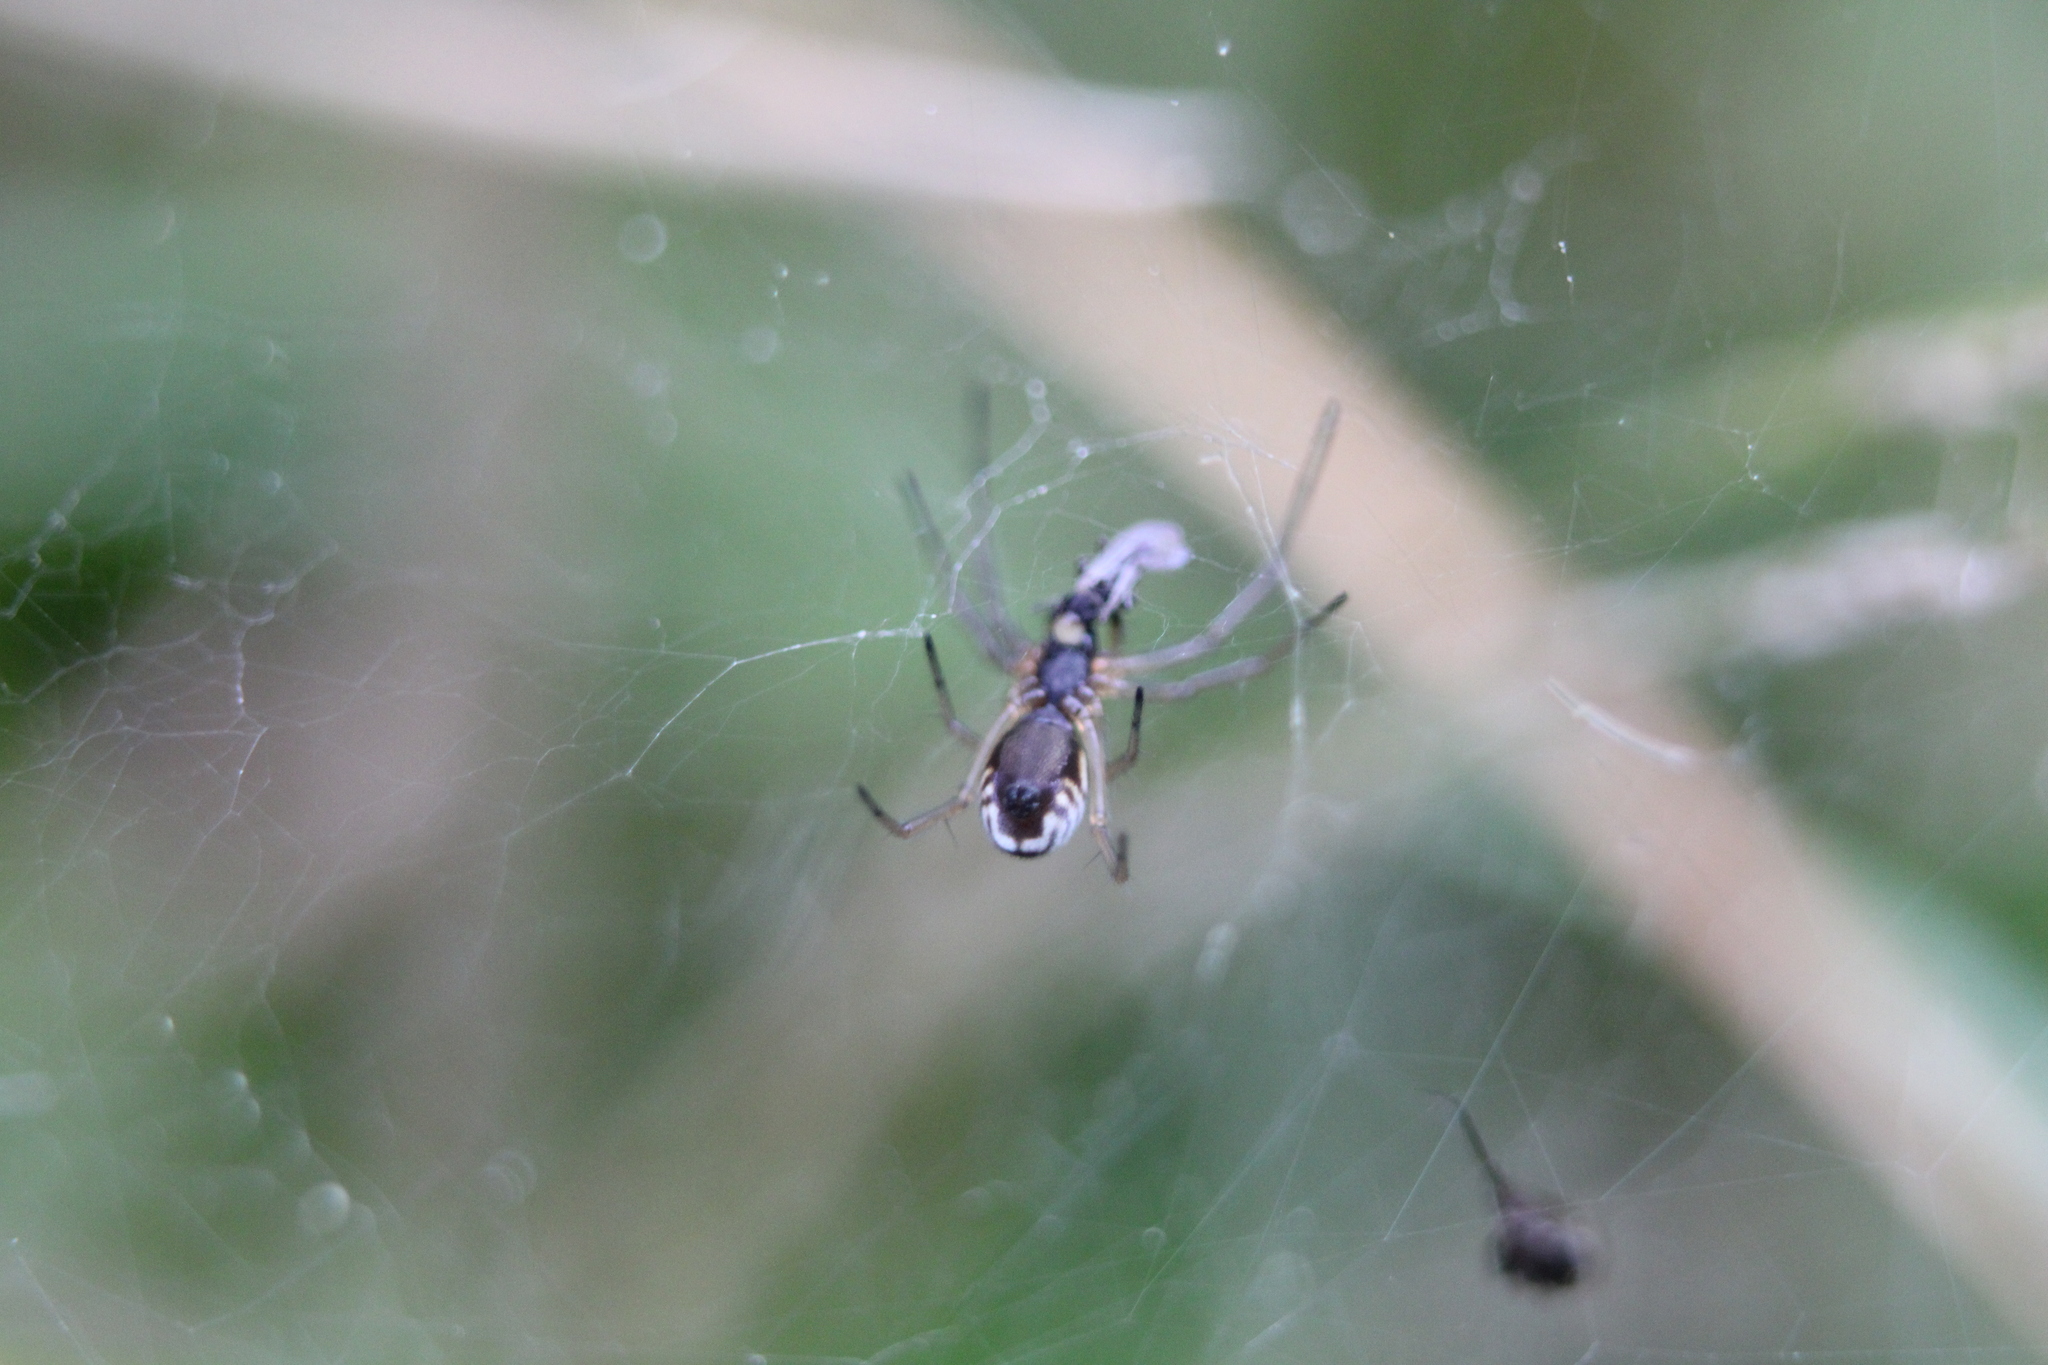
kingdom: Animalia
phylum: Arthropoda
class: Arachnida
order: Araneae
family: Linyphiidae
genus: Frontinella
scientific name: Frontinella pyramitela
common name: Bowl-and-doily spider
